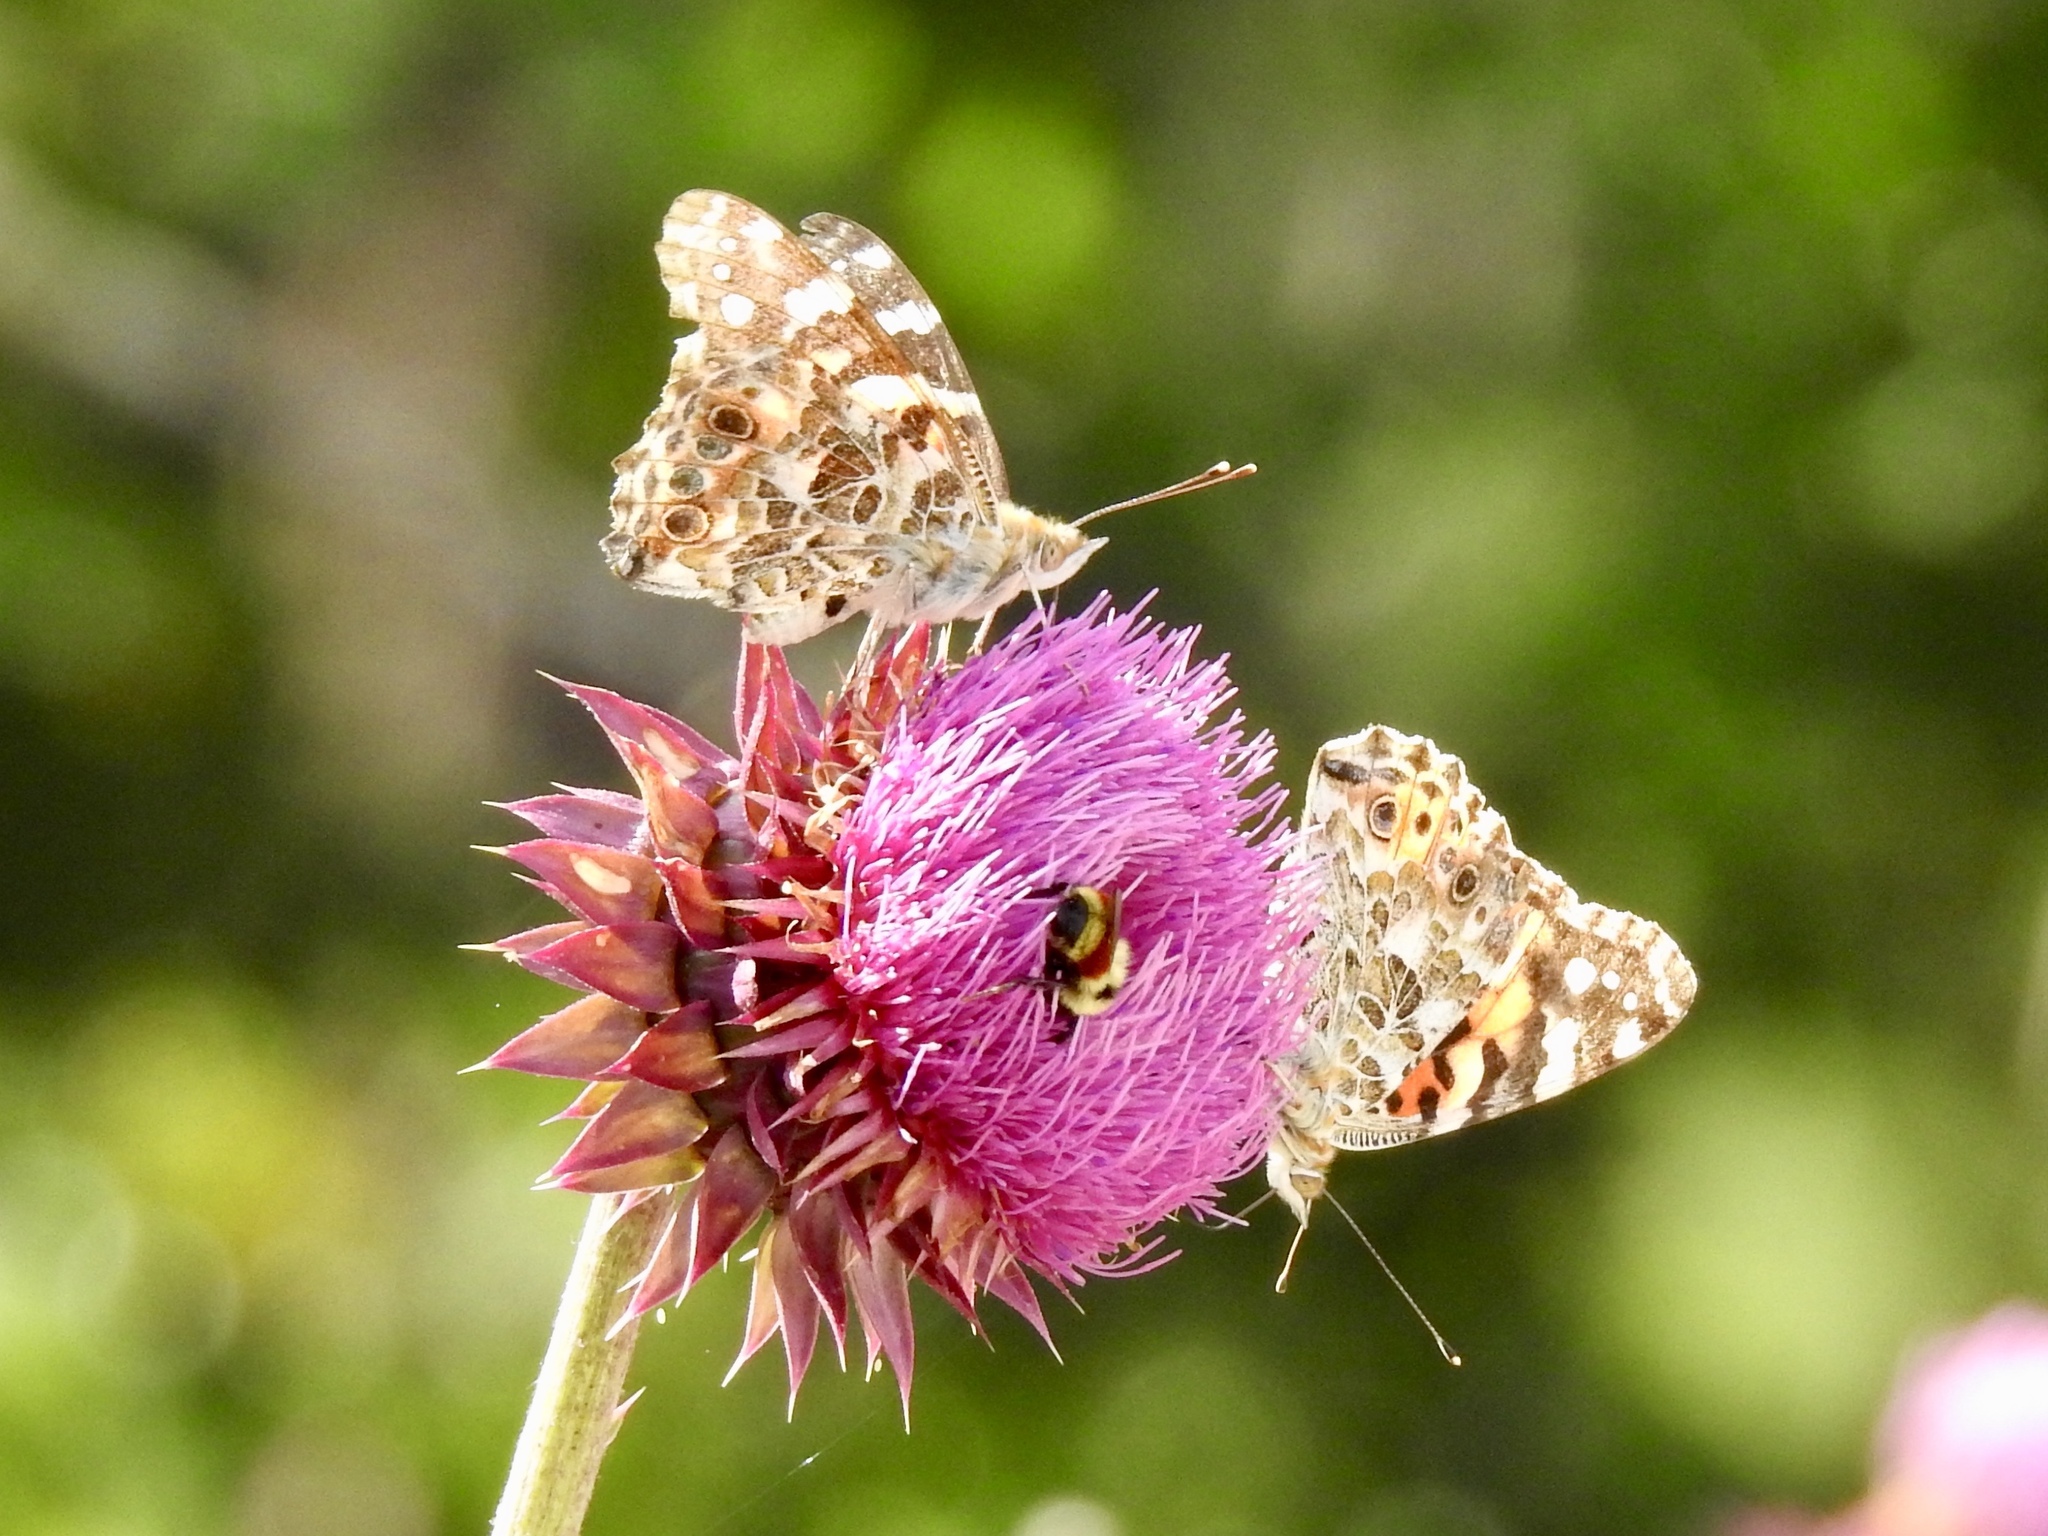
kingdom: Animalia
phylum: Arthropoda
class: Insecta
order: Lepidoptera
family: Nymphalidae
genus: Vanessa
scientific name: Vanessa cardui
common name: Painted lady
